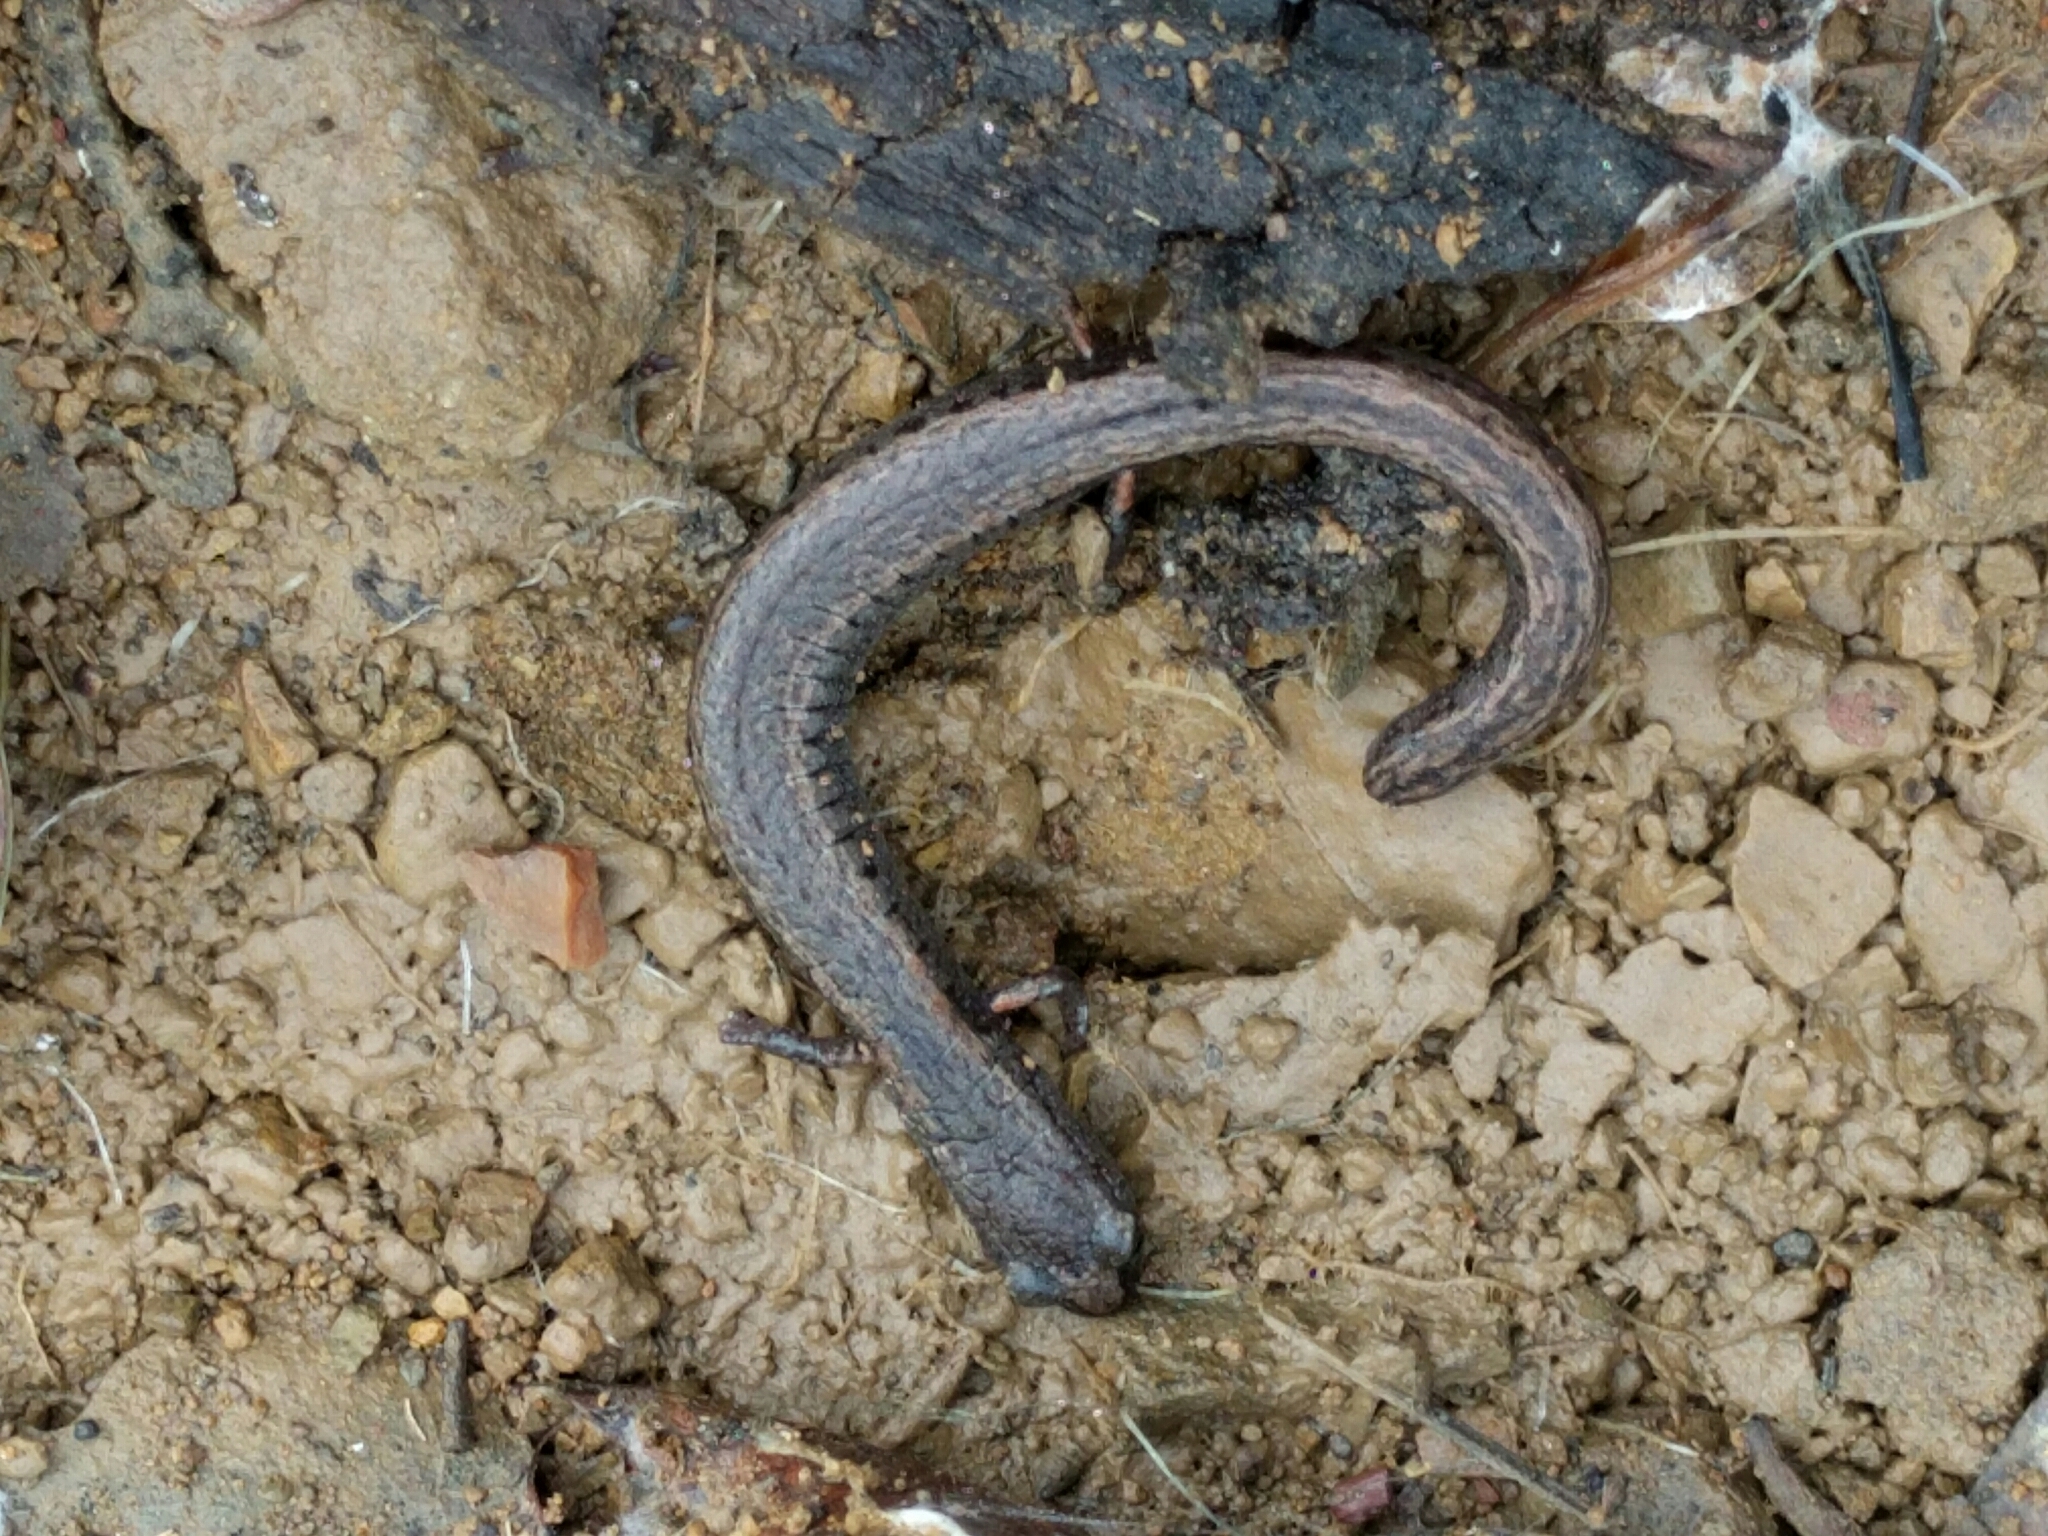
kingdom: Animalia
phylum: Chordata
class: Amphibia
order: Caudata
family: Plethodontidae
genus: Batrachoseps
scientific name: Batrachoseps attenuatus
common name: California slender salamander
